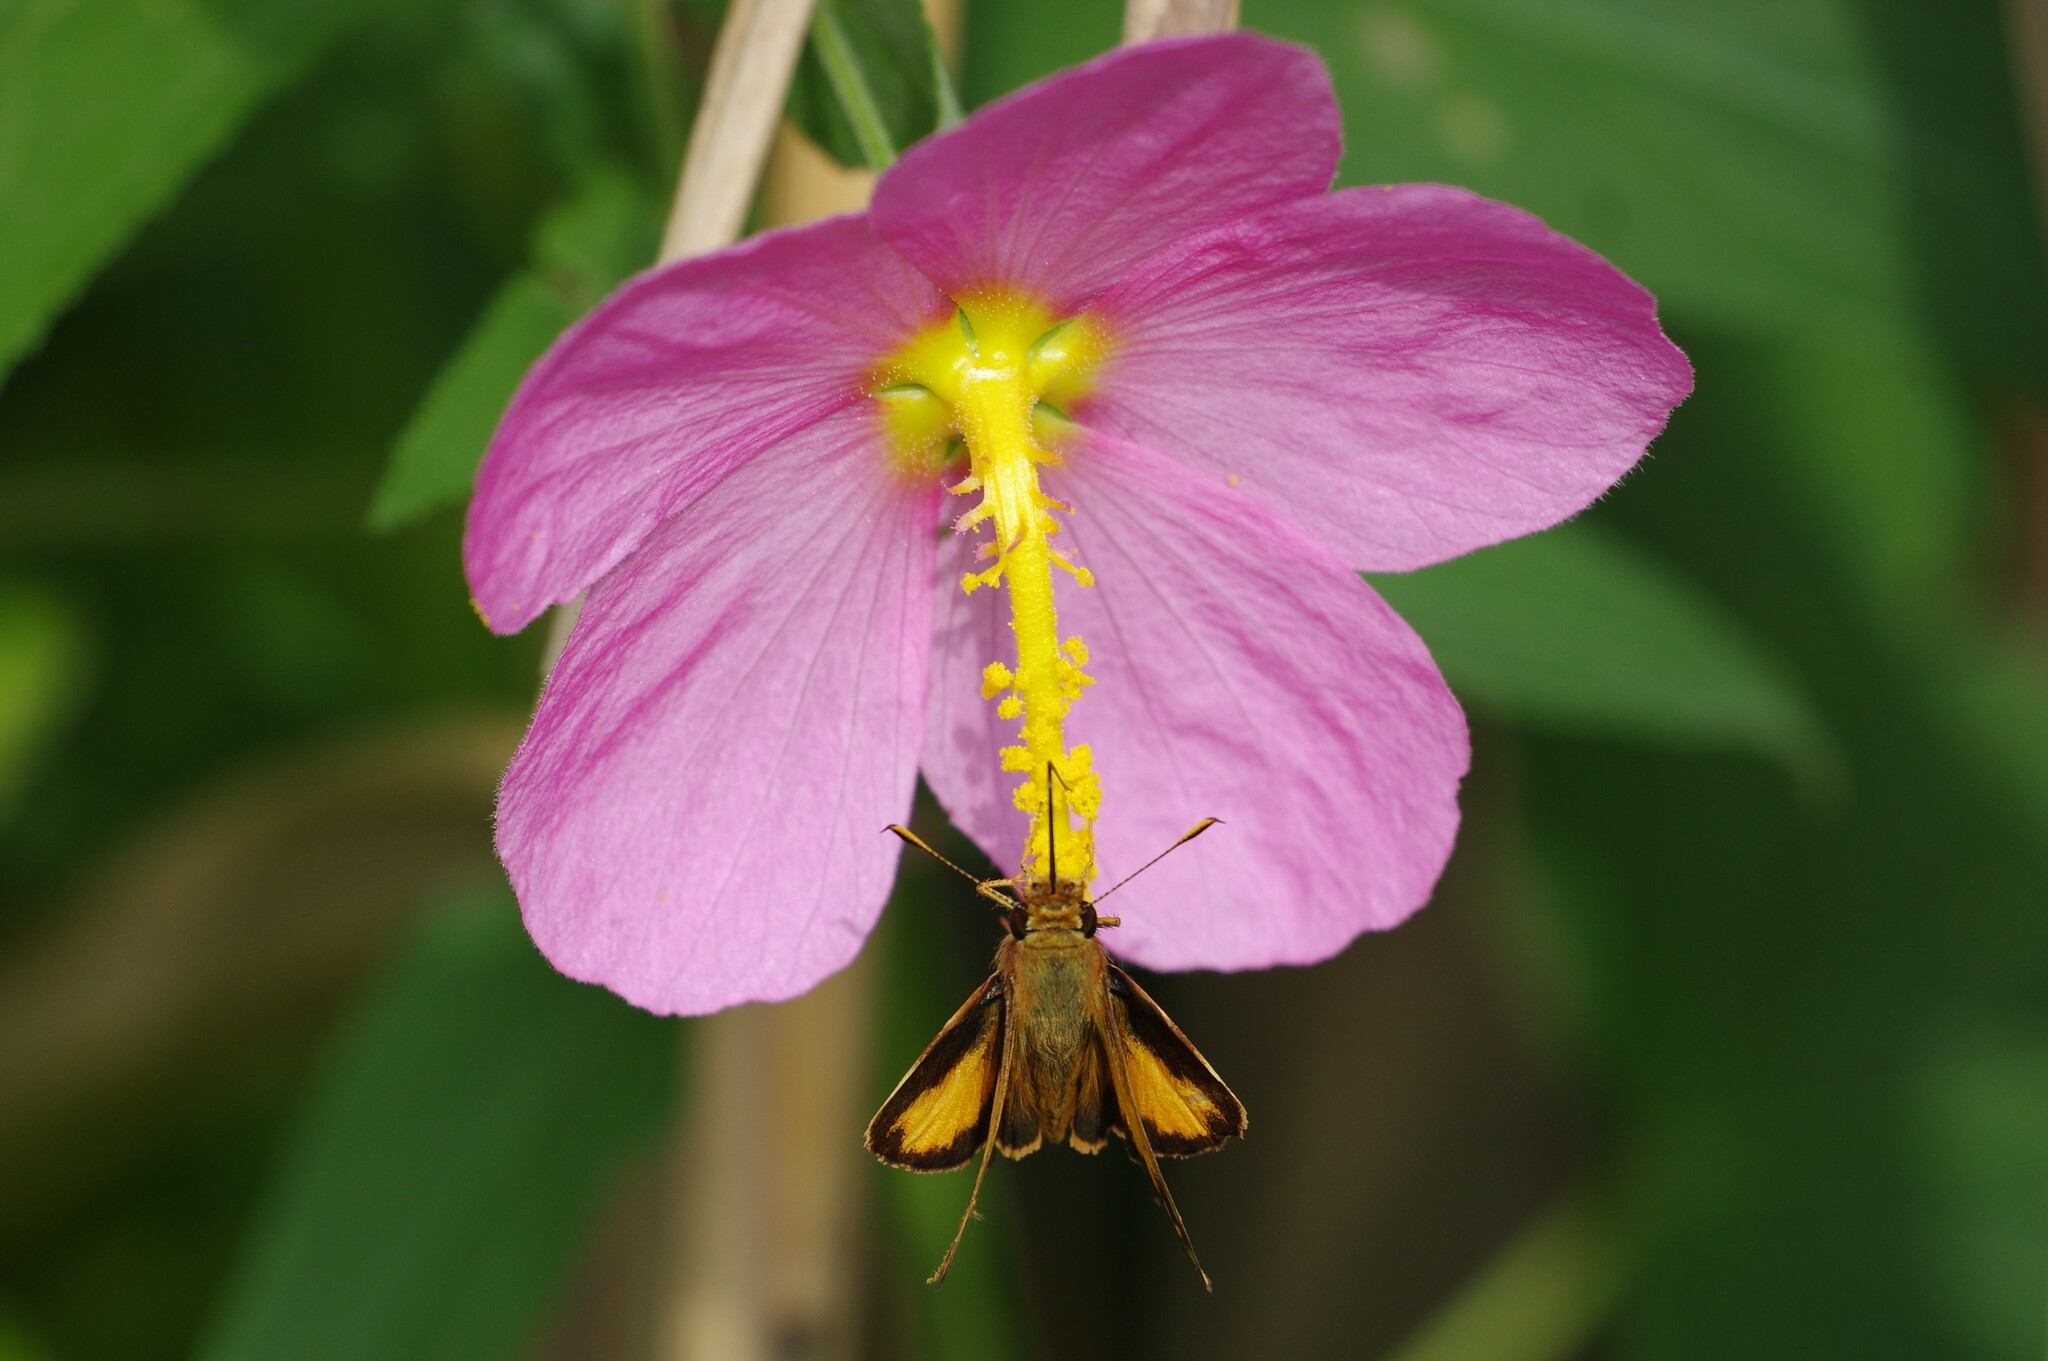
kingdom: Animalia
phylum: Arthropoda
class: Insecta
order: Lepidoptera
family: Hesperiidae
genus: Lon
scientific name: Lon zabulon
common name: Zabulon skipper
